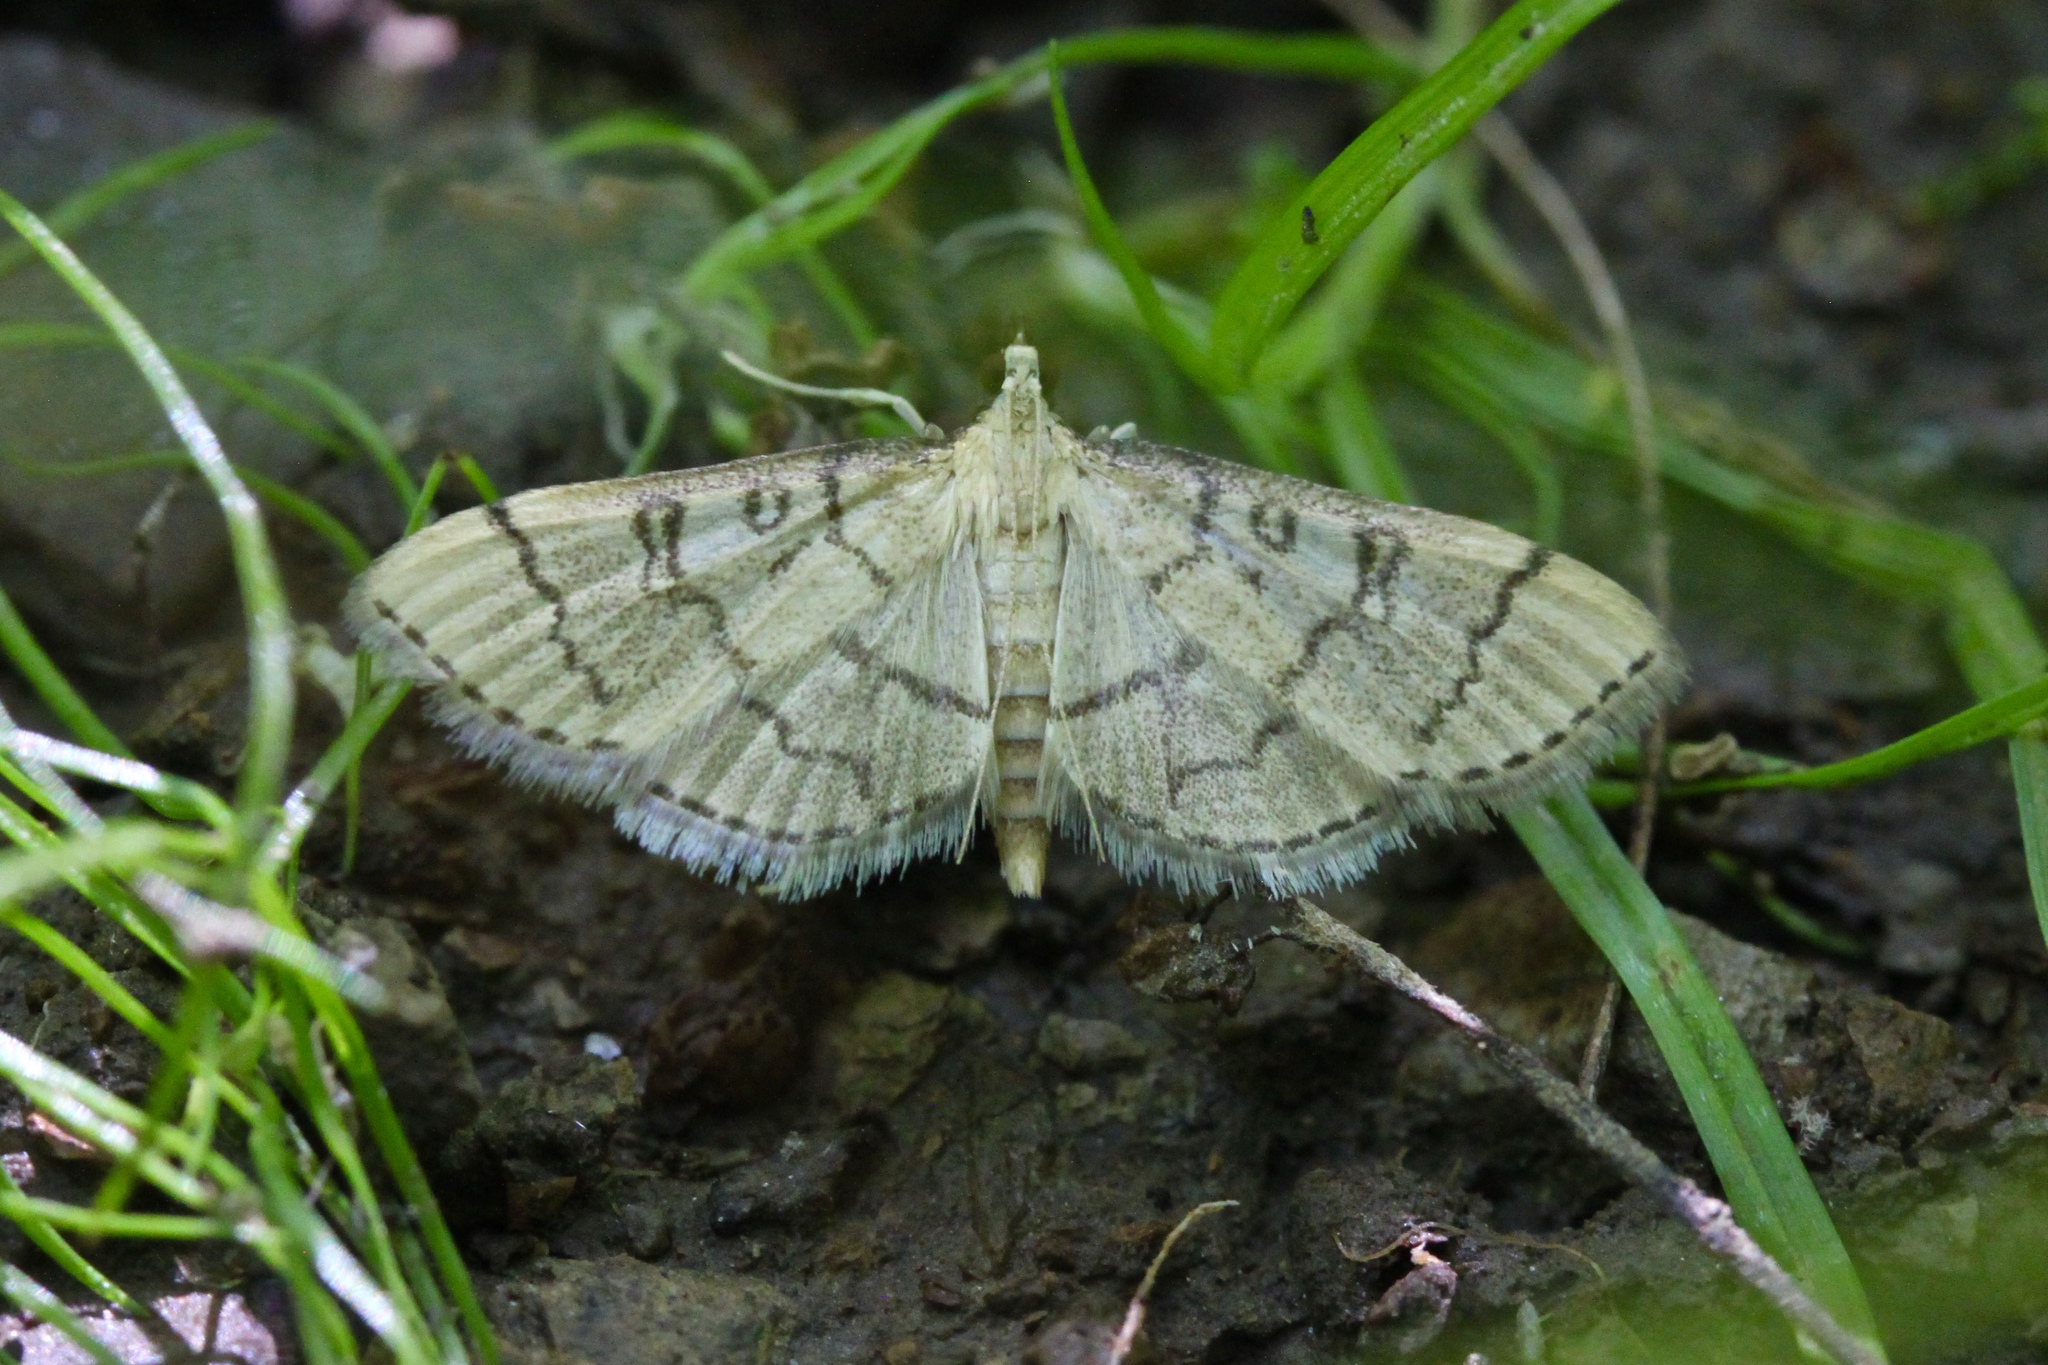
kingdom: Animalia
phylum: Arthropoda
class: Insecta
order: Lepidoptera
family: Crambidae
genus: Lamprosema
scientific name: Lamprosema Blepharomastix ranalis
